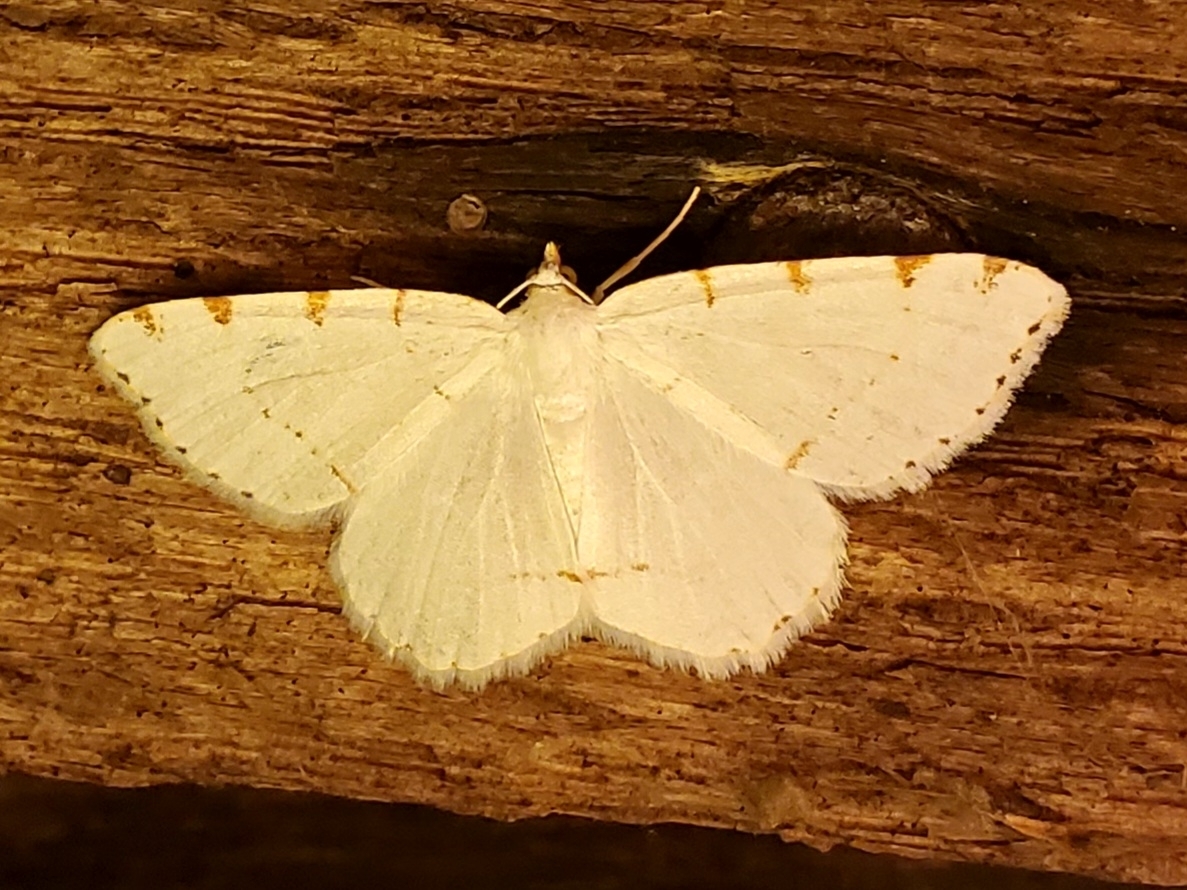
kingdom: Animalia
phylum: Arthropoda
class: Insecta
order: Lepidoptera
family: Geometridae
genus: Macaria
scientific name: Macaria pustularia
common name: Lesser maple spanworm moth
